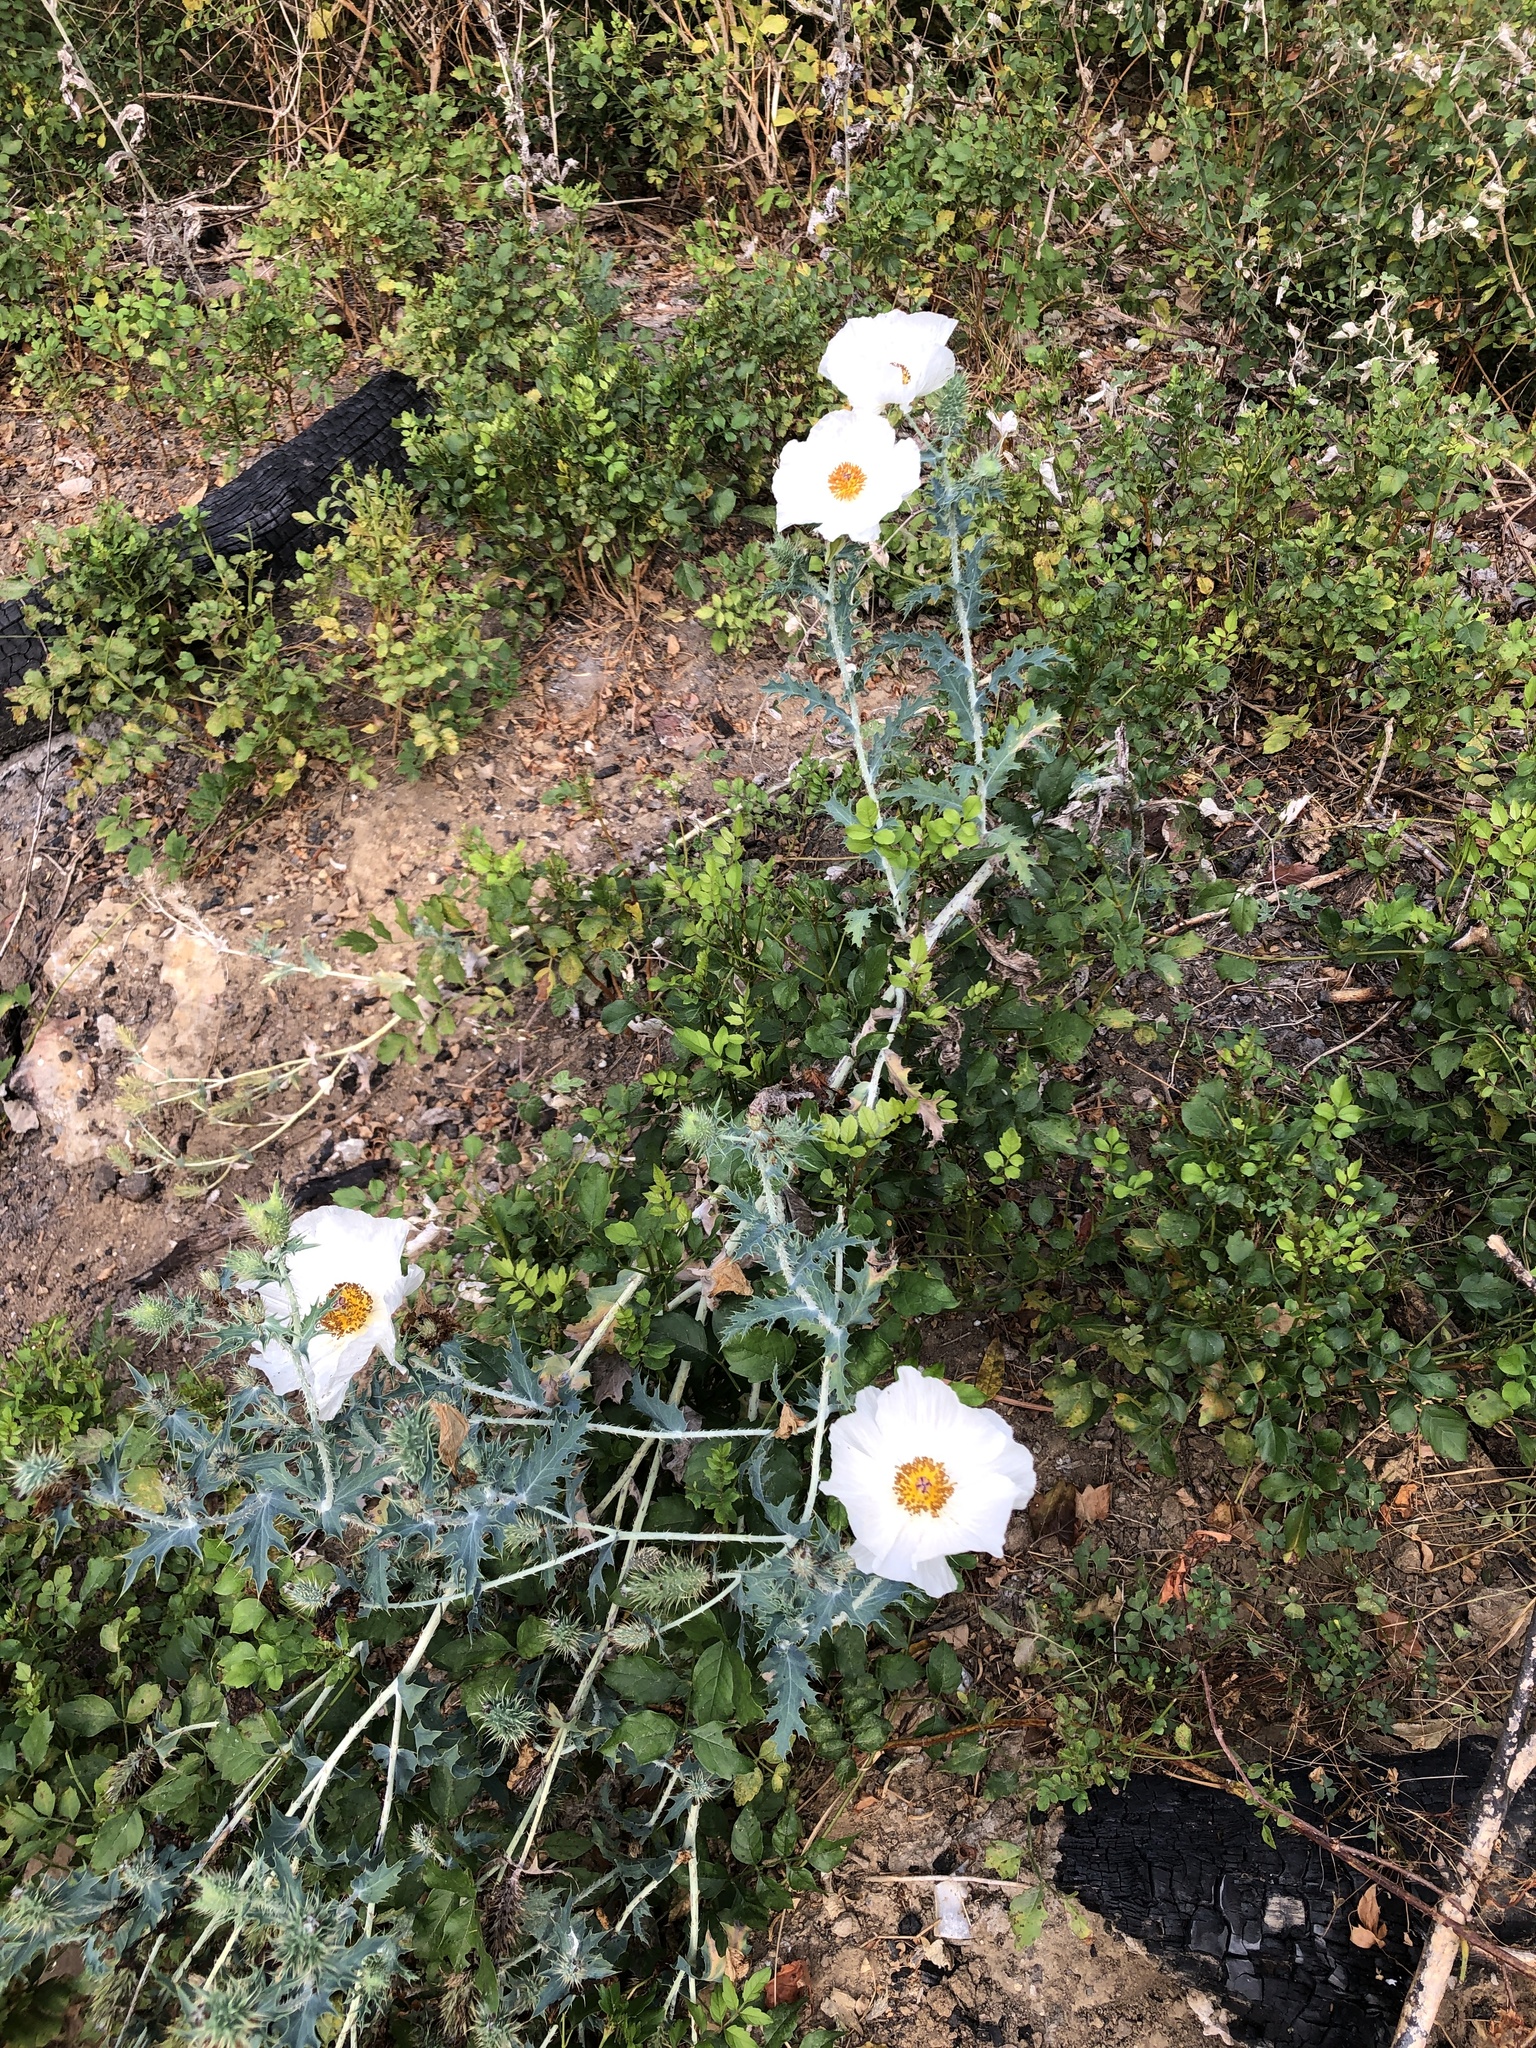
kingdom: Plantae
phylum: Tracheophyta
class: Magnoliopsida
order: Ranunculales
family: Papaveraceae
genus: Argemone
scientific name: Argemone albiflora
